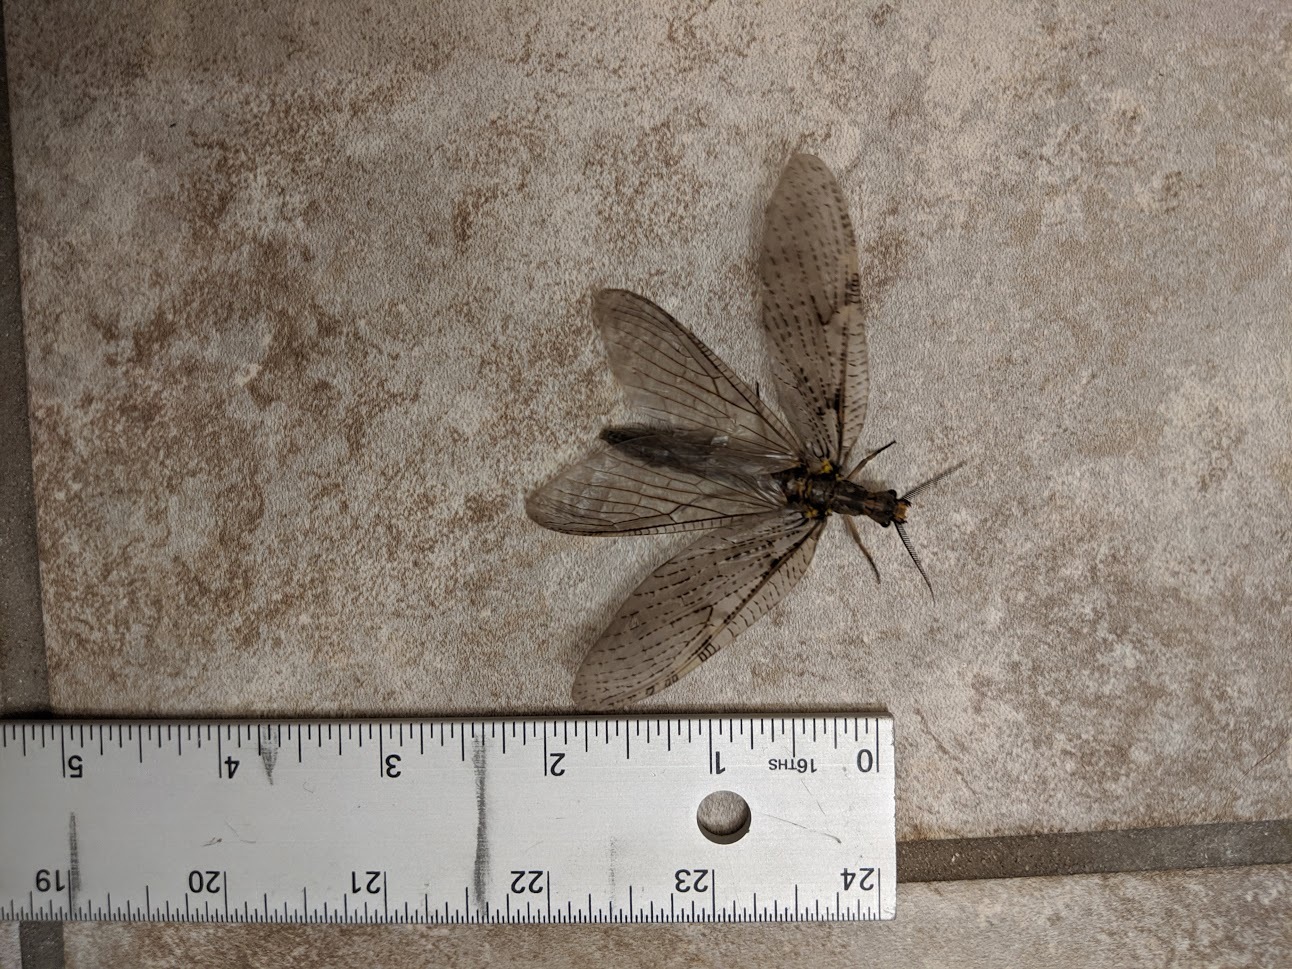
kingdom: Animalia
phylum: Arthropoda
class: Insecta
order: Megaloptera
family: Corydalidae
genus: Chauliodes
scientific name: Chauliodes pectinicornis
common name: Summer fishfly
